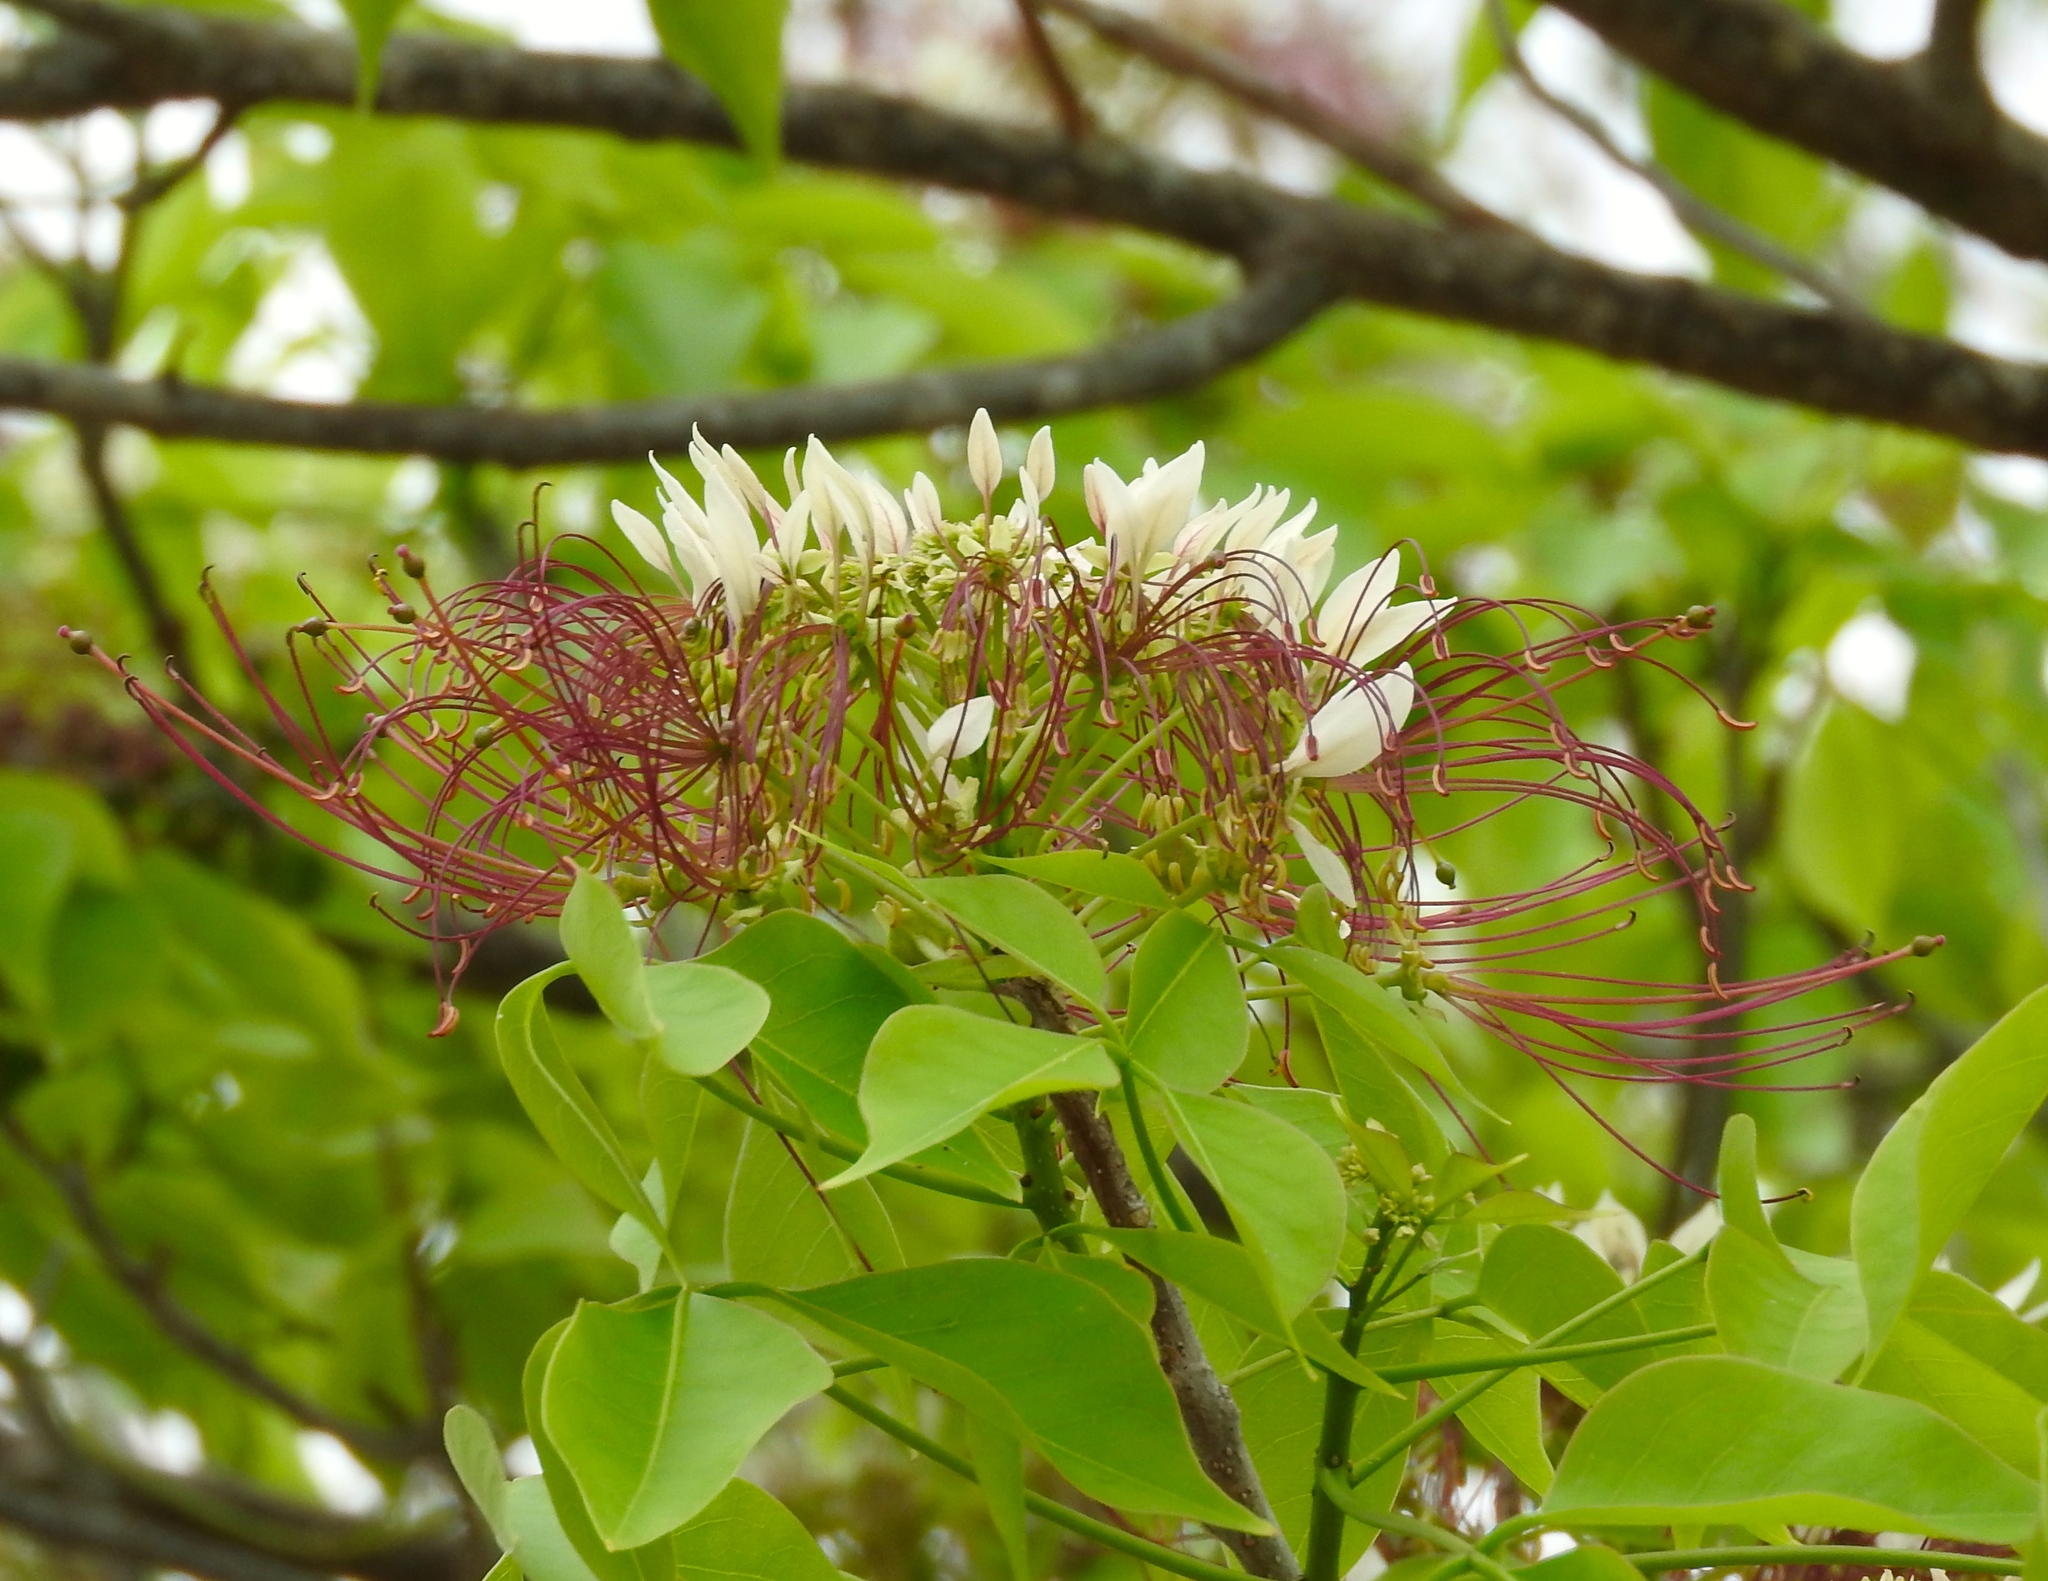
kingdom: Plantae
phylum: Tracheophyta
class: Magnoliopsida
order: Brassicales
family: Capparaceae
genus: Crateva
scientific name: Crateva tapia
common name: Garlic-pear
